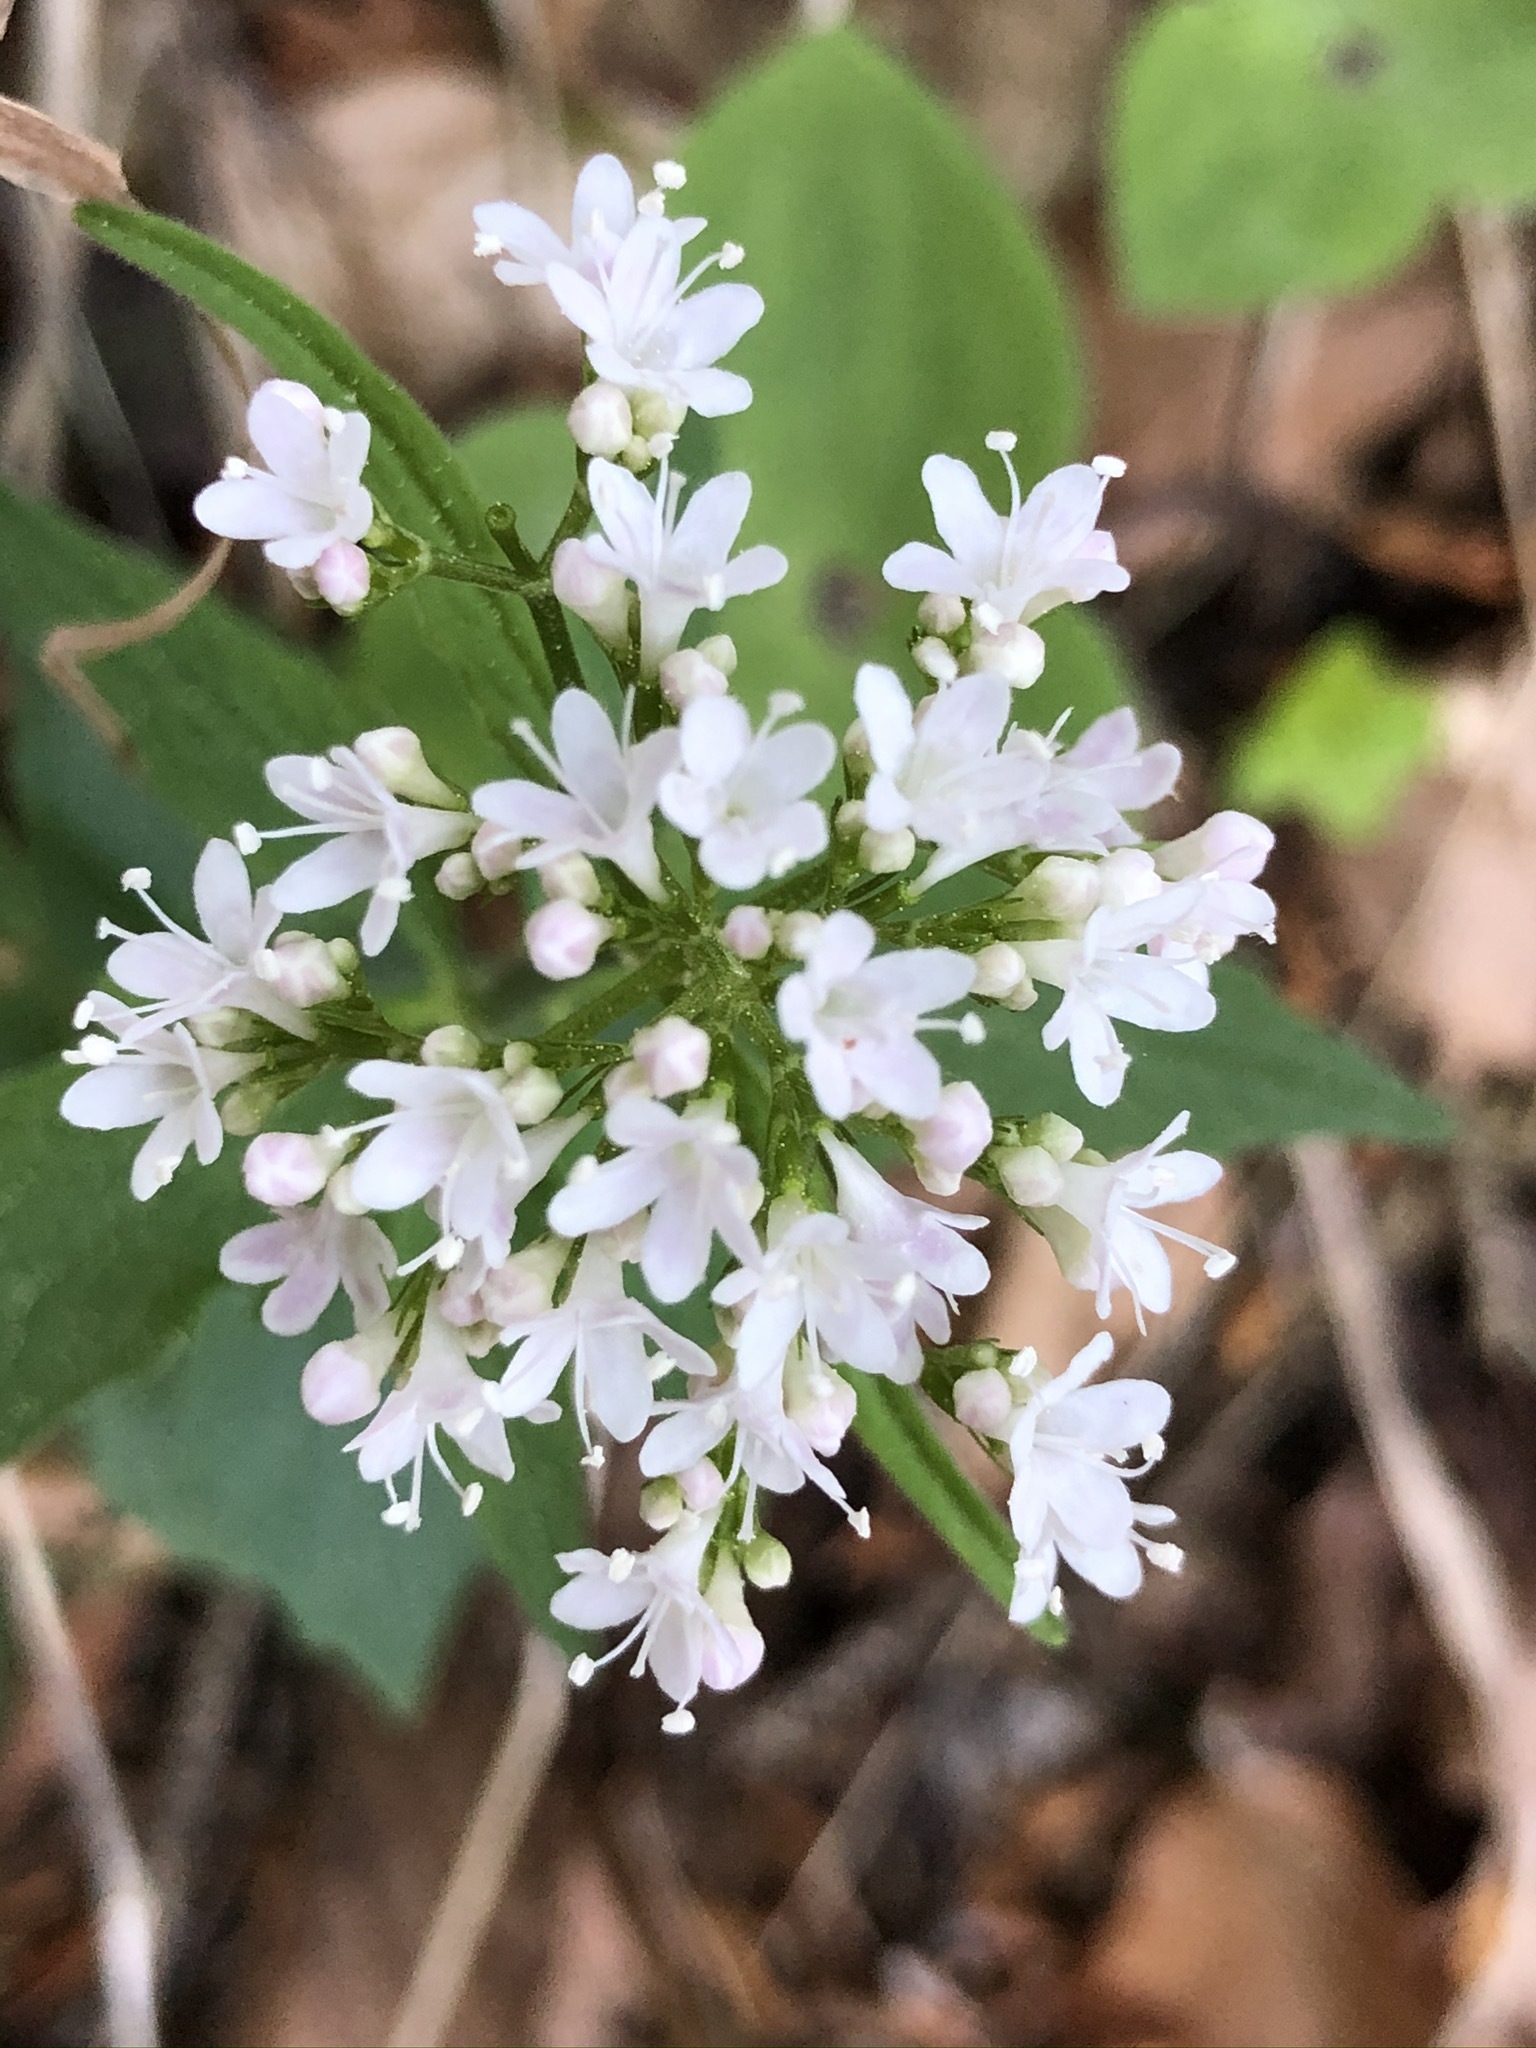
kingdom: Plantae
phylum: Tracheophyta
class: Magnoliopsida
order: Dipsacales
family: Caprifoliaceae
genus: Valeriana
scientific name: Valeriana tripteris
